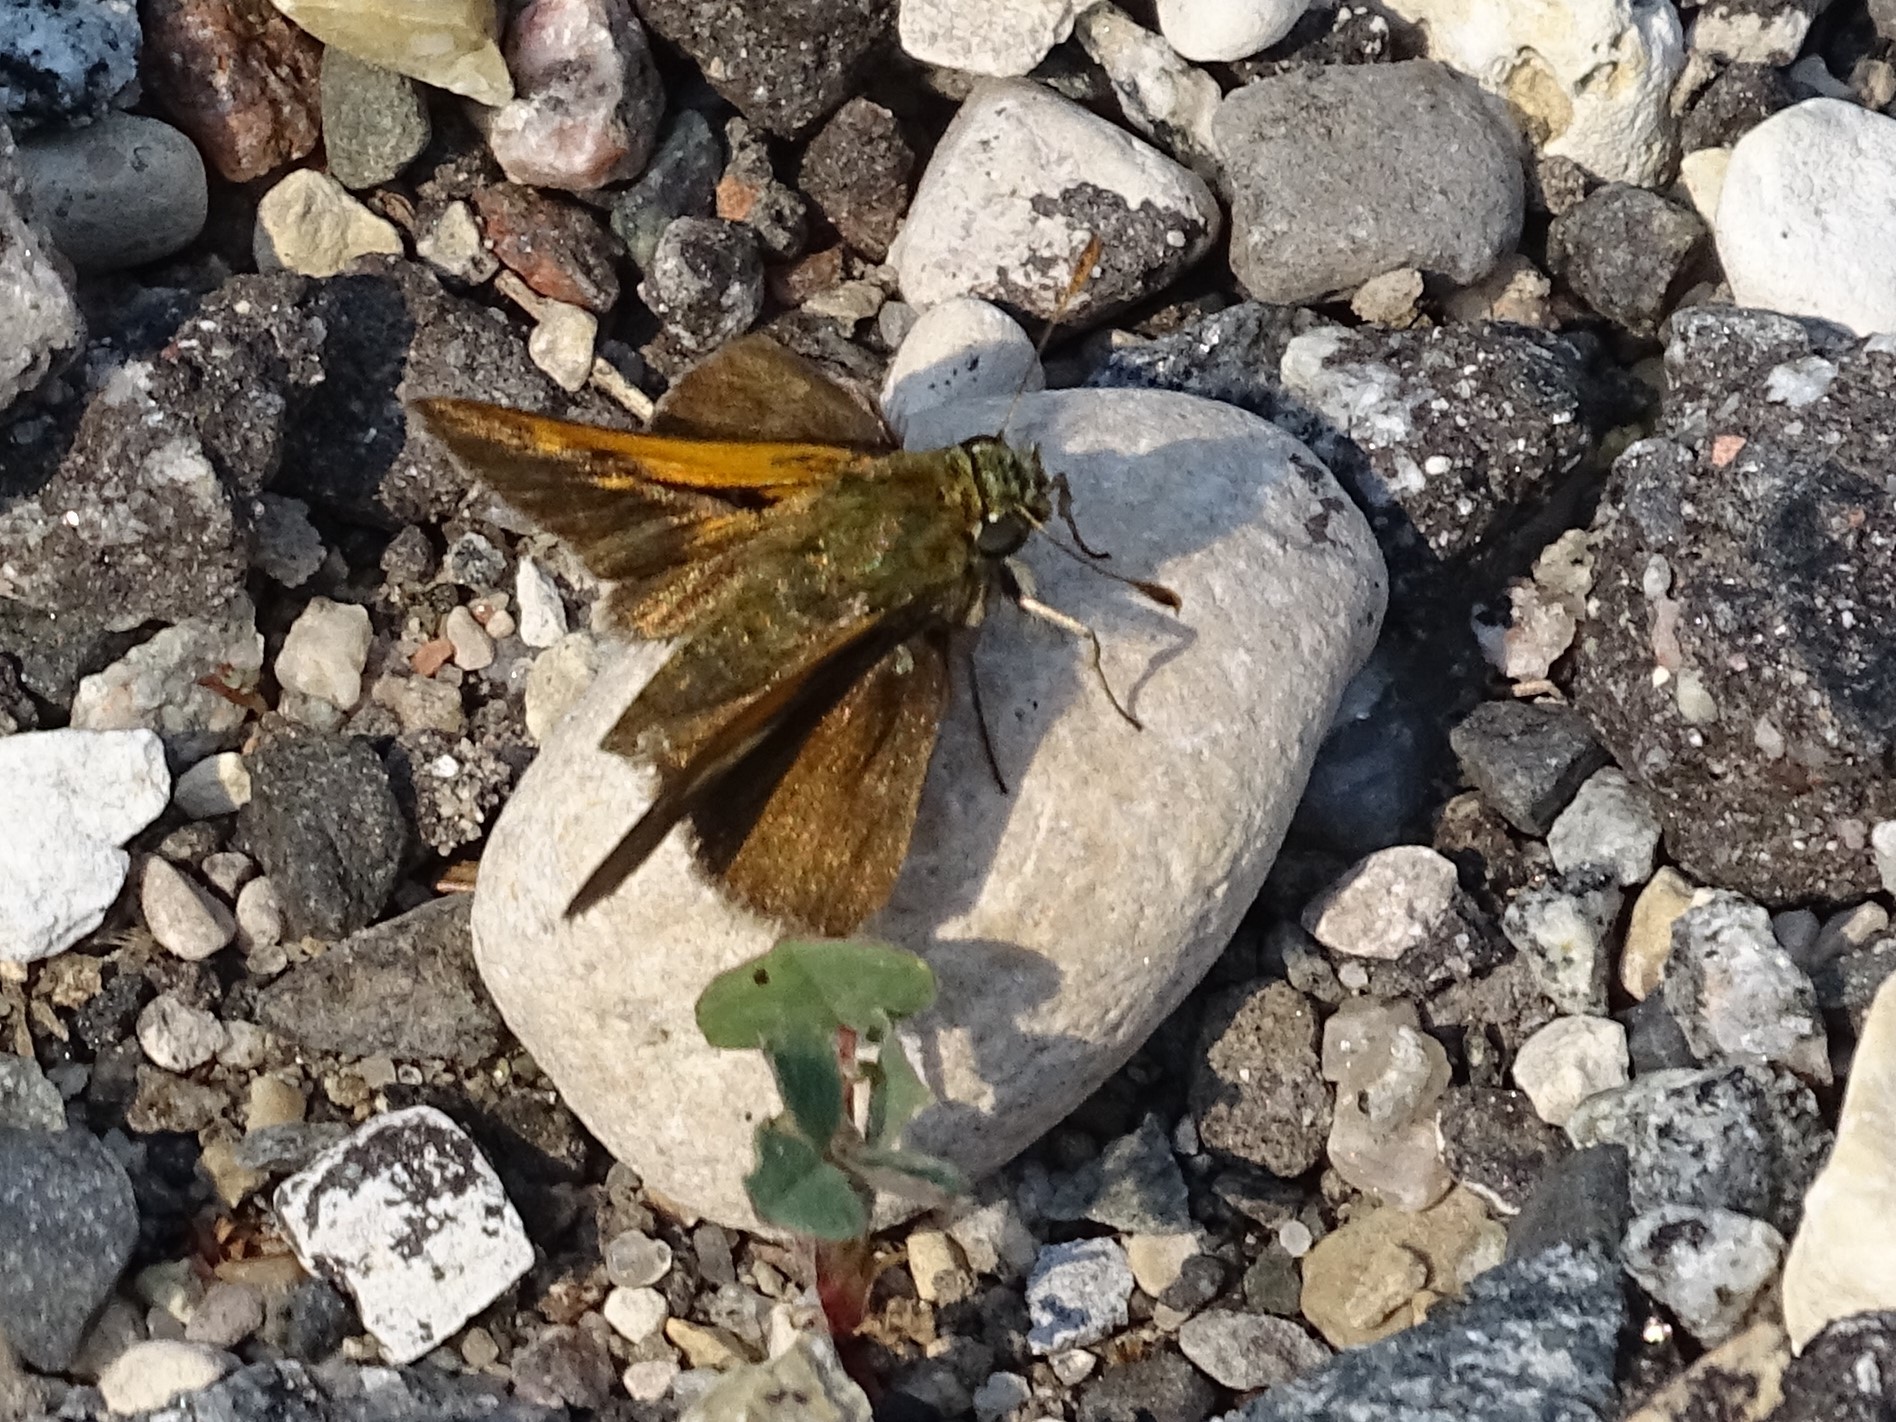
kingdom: Animalia
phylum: Arthropoda
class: Insecta
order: Lepidoptera
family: Hesperiidae
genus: Polites
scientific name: Polites themistocles
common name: Tawny-edged skipper
